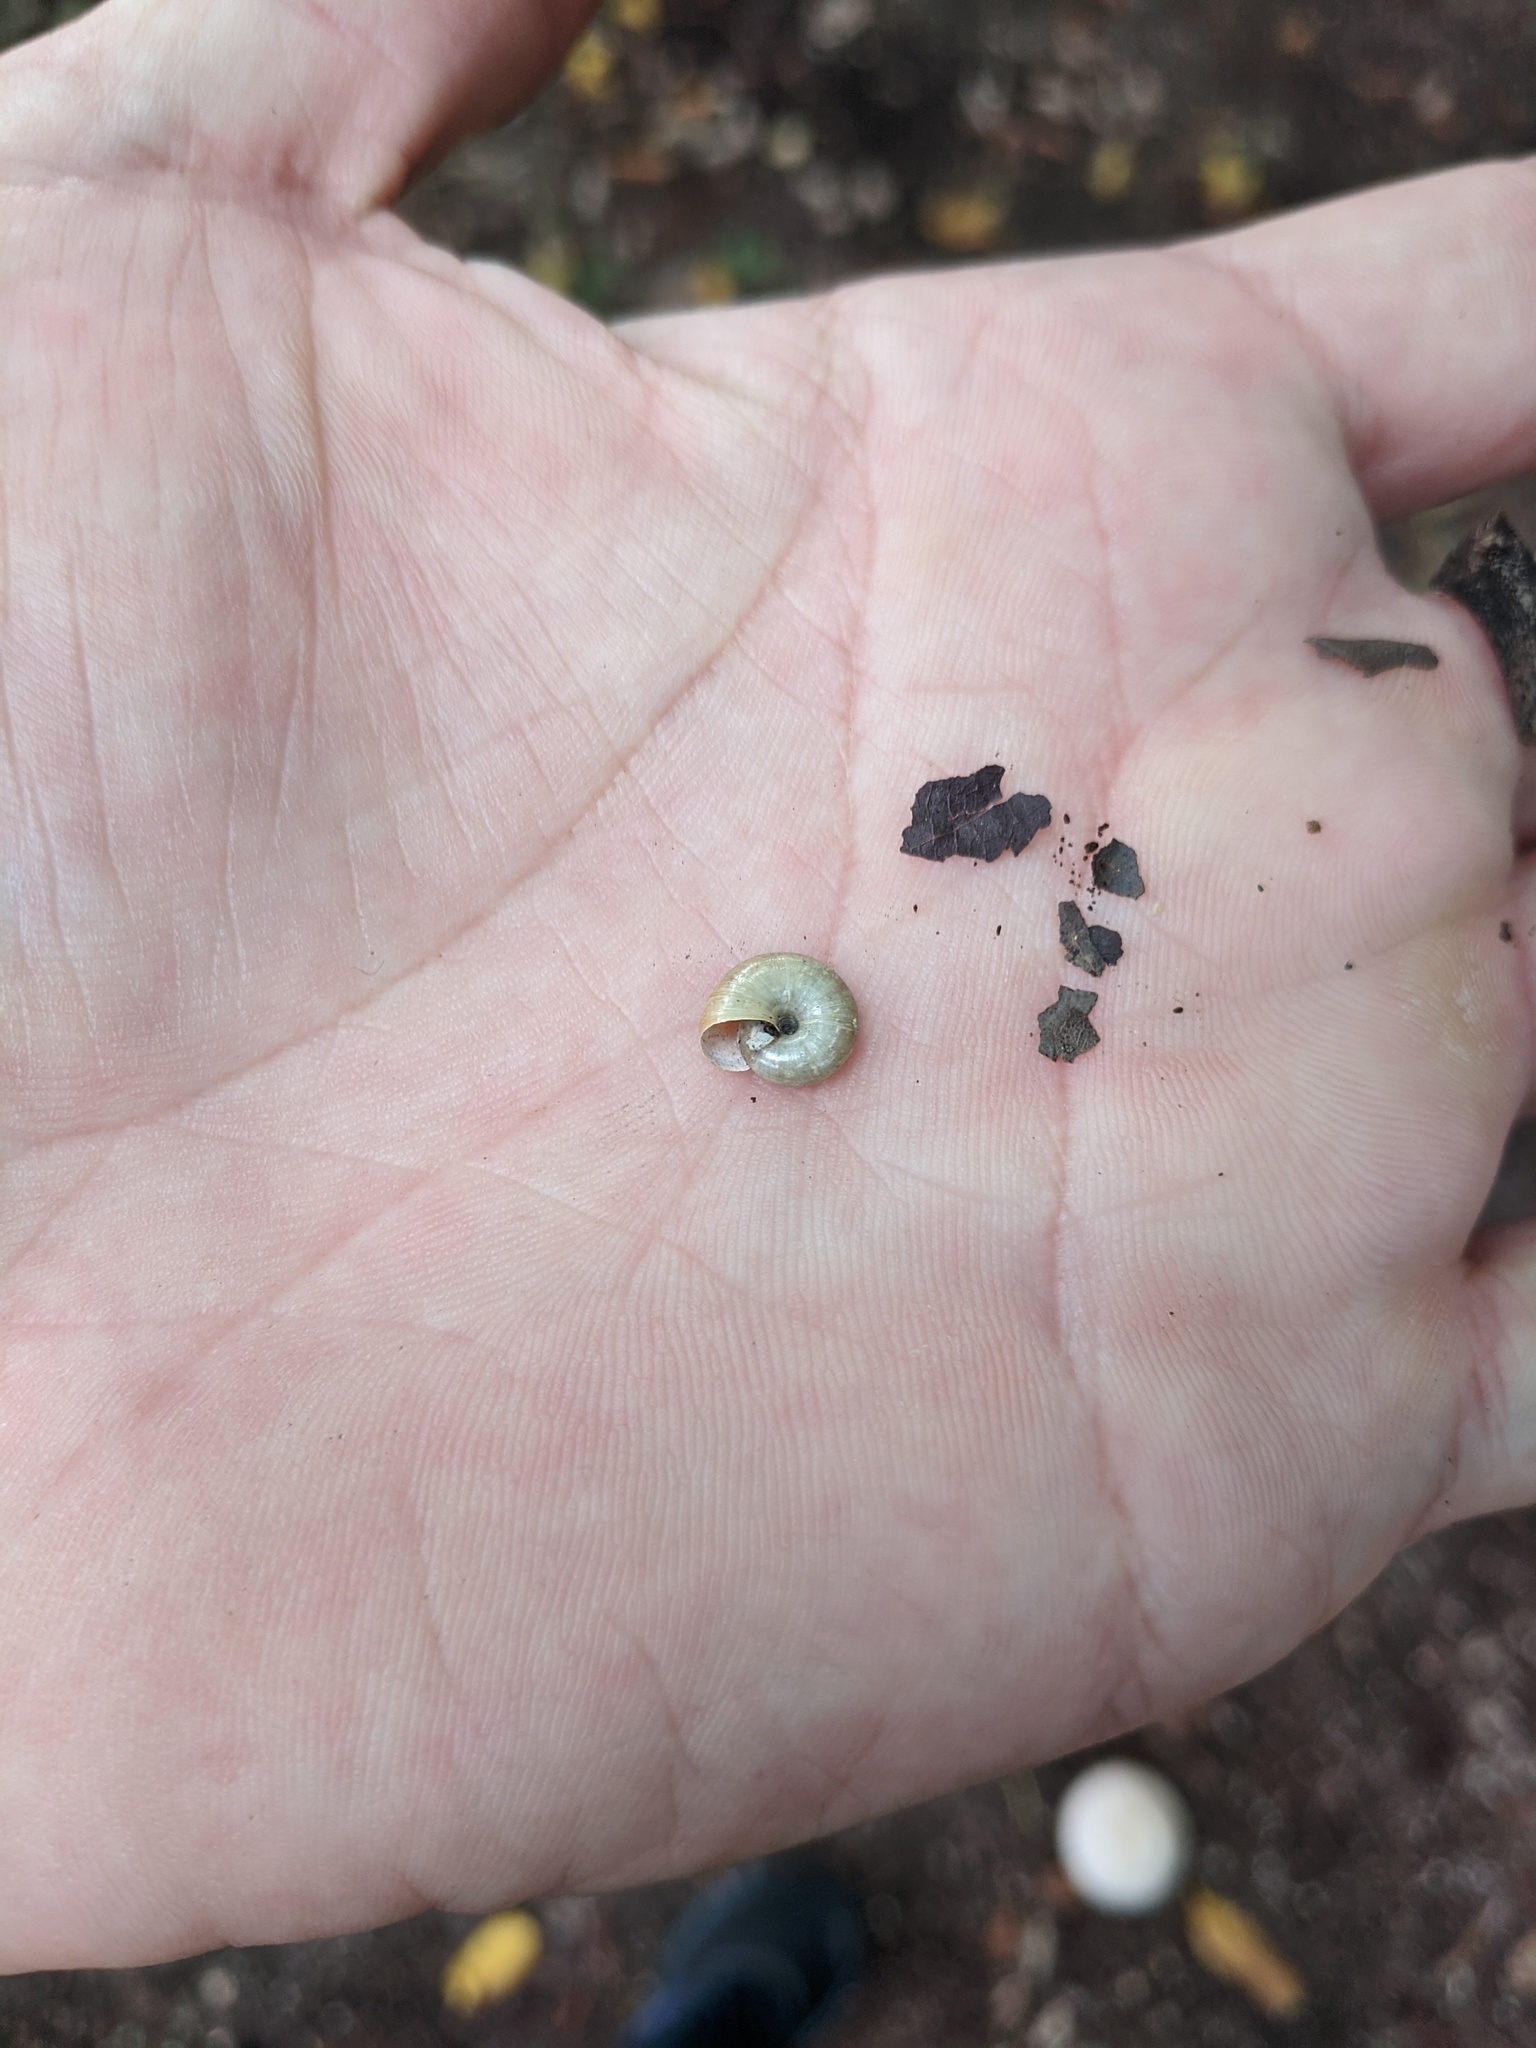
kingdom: Animalia
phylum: Mollusca
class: Gastropoda
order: Stylommatophora
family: Oxychilidae
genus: Oxychilus
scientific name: Oxychilus draparnaudi
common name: Draparnaud's glass snail
